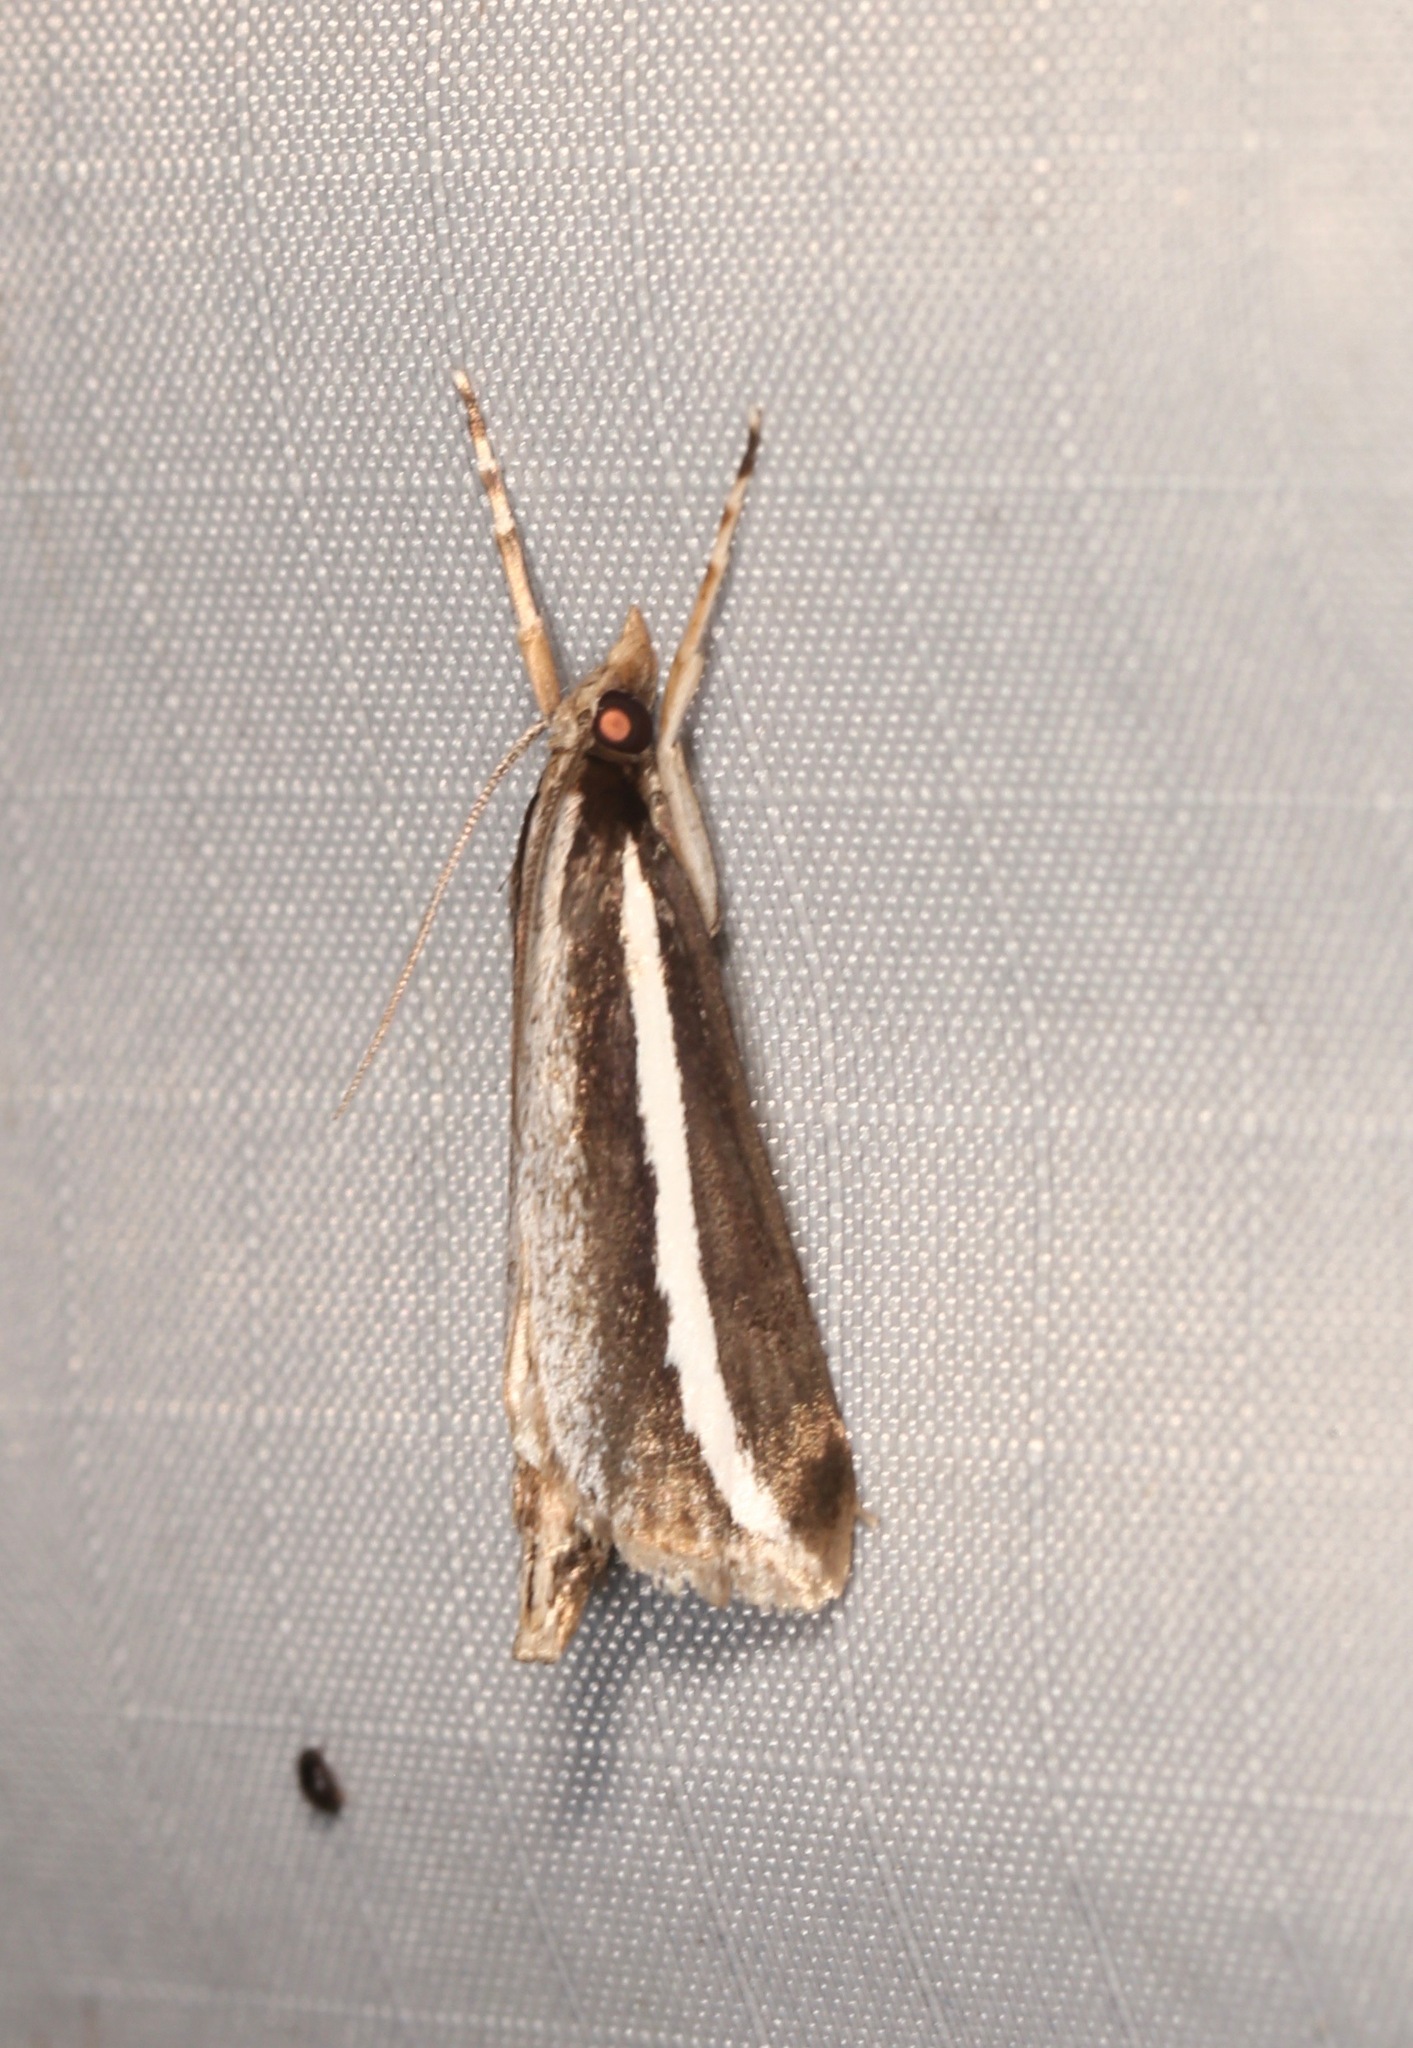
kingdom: Animalia
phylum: Arthropoda
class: Insecta
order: Lepidoptera
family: Crambidae
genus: Carectocultus
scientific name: Carectocultus perstrialis
